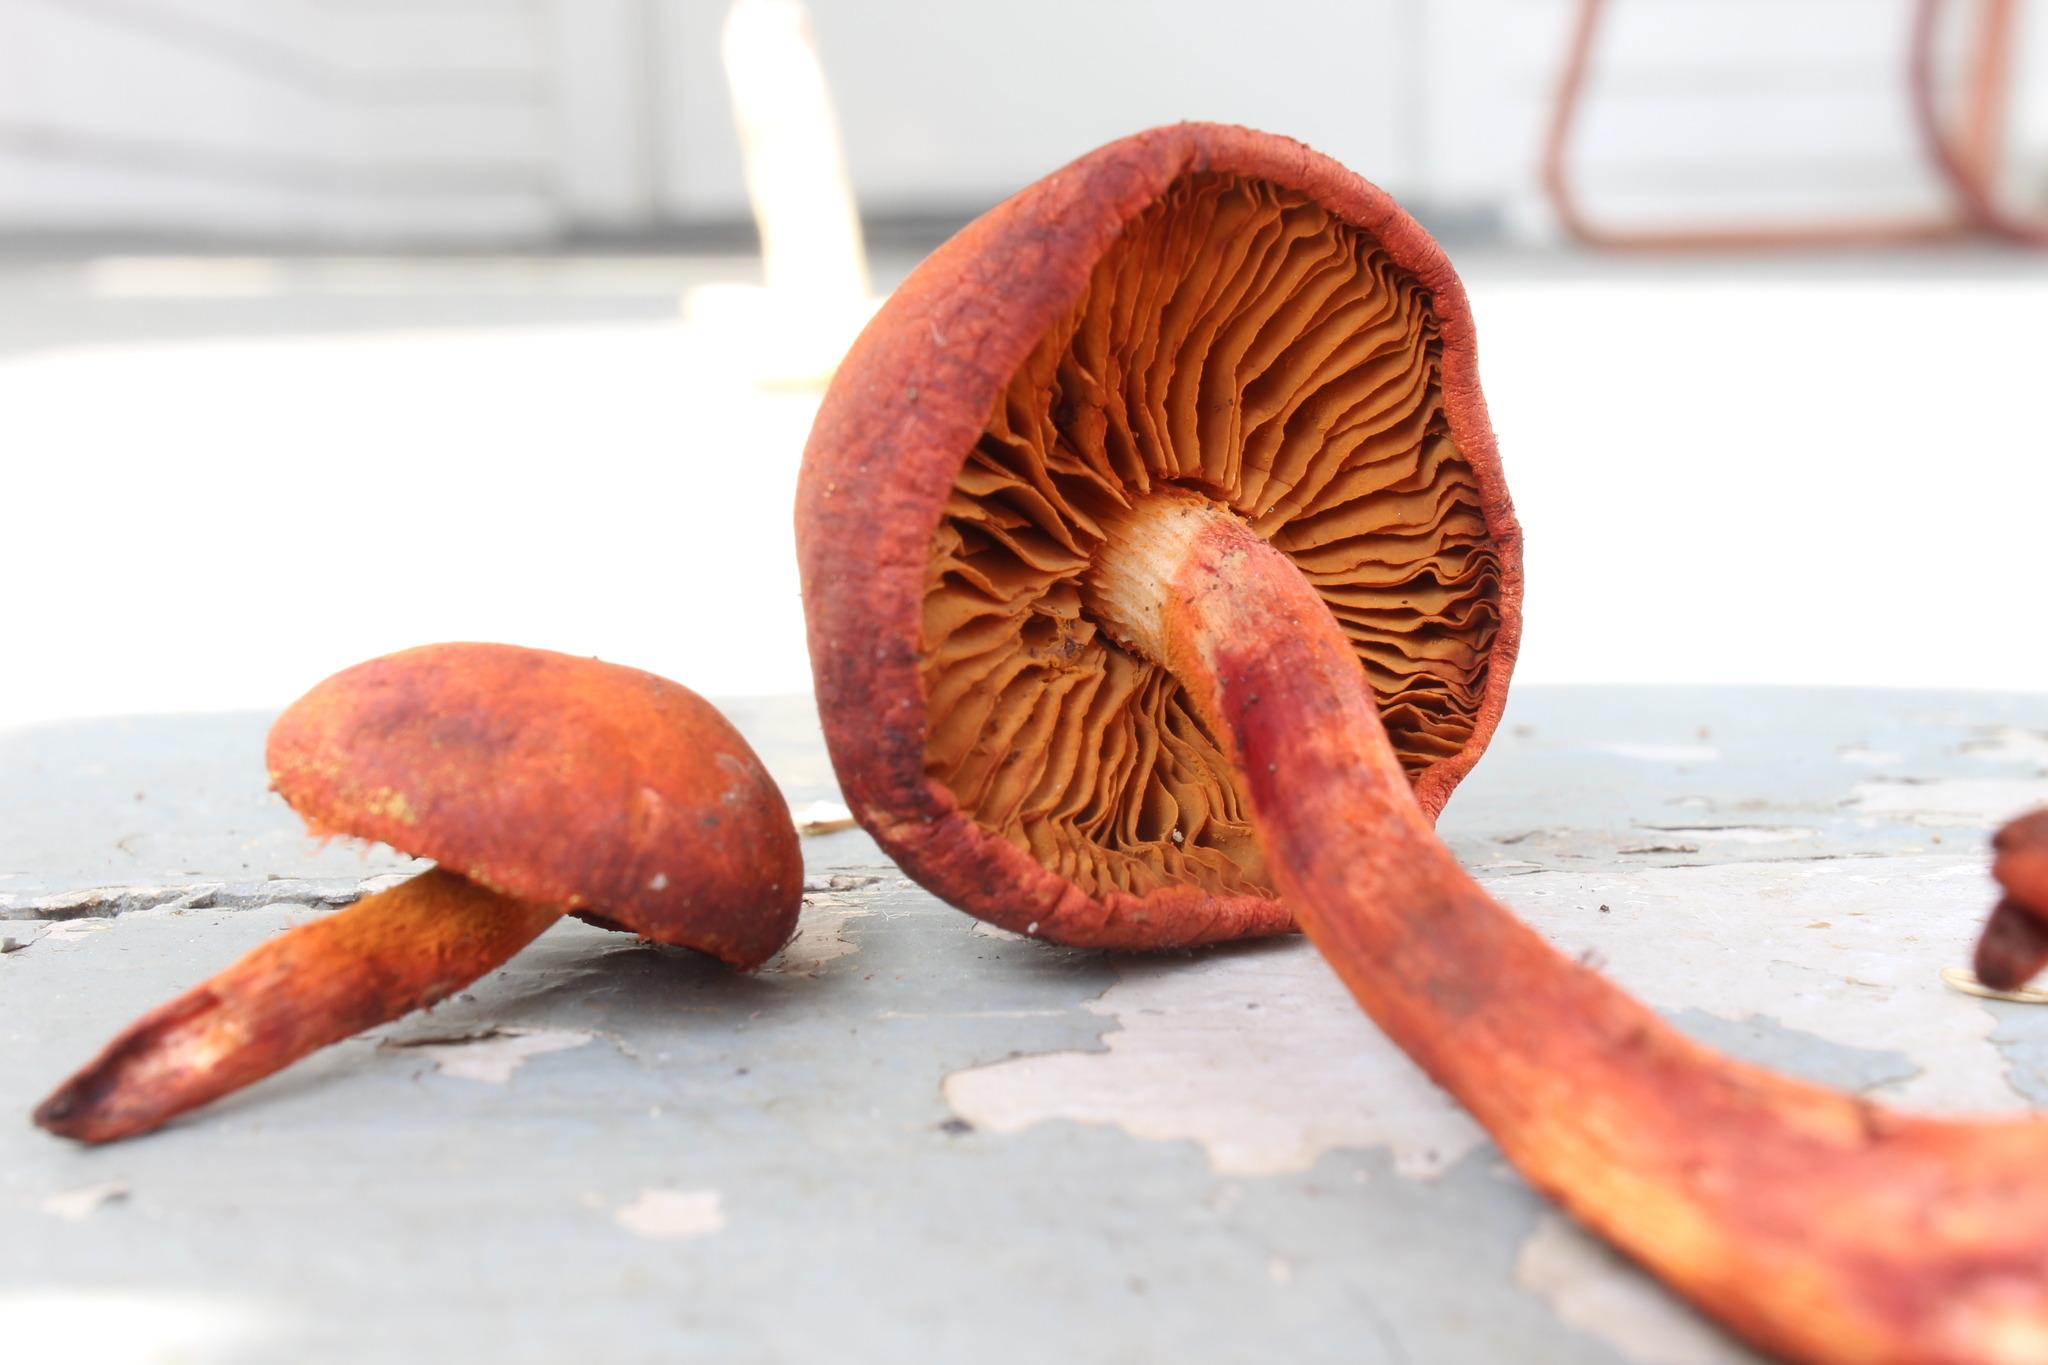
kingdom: Fungi
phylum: Basidiomycota
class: Agaricomycetes
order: Agaricales
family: Hymenogastraceae
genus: Gymnopilus
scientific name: Gymnopilus luteofolius
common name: Yellow-gilled gymnopilus
